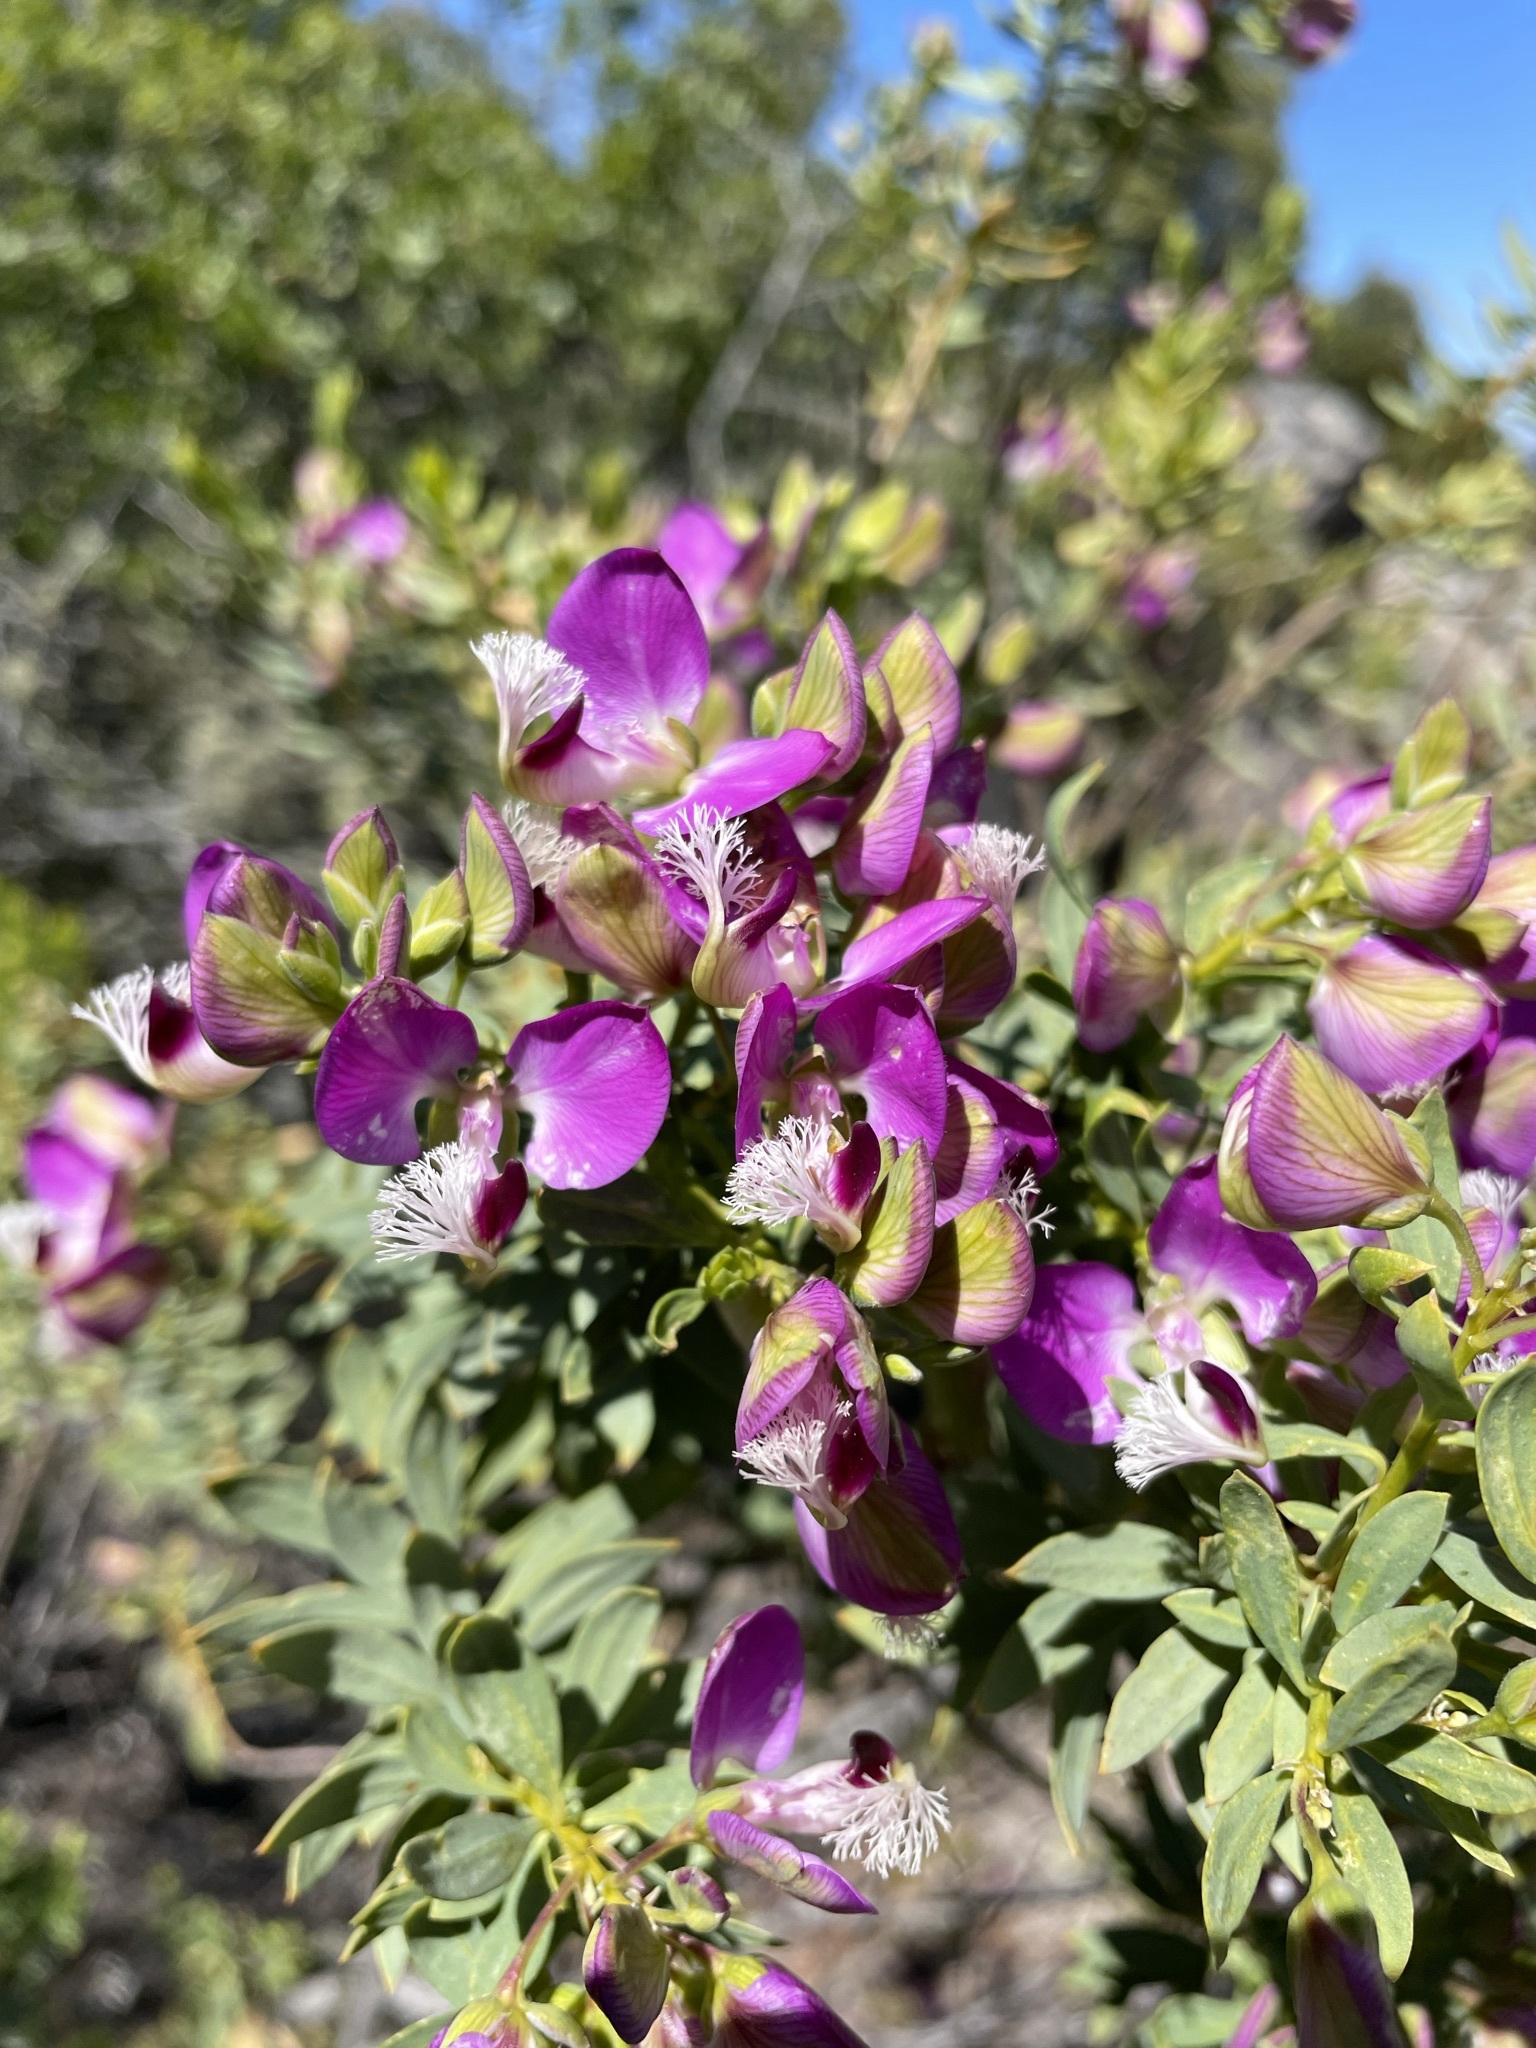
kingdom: Plantae
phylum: Tracheophyta
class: Magnoliopsida
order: Fabales
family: Polygalaceae
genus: Polygala
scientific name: Polygala myrtifolia
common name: Myrtle-leaf milkwort
